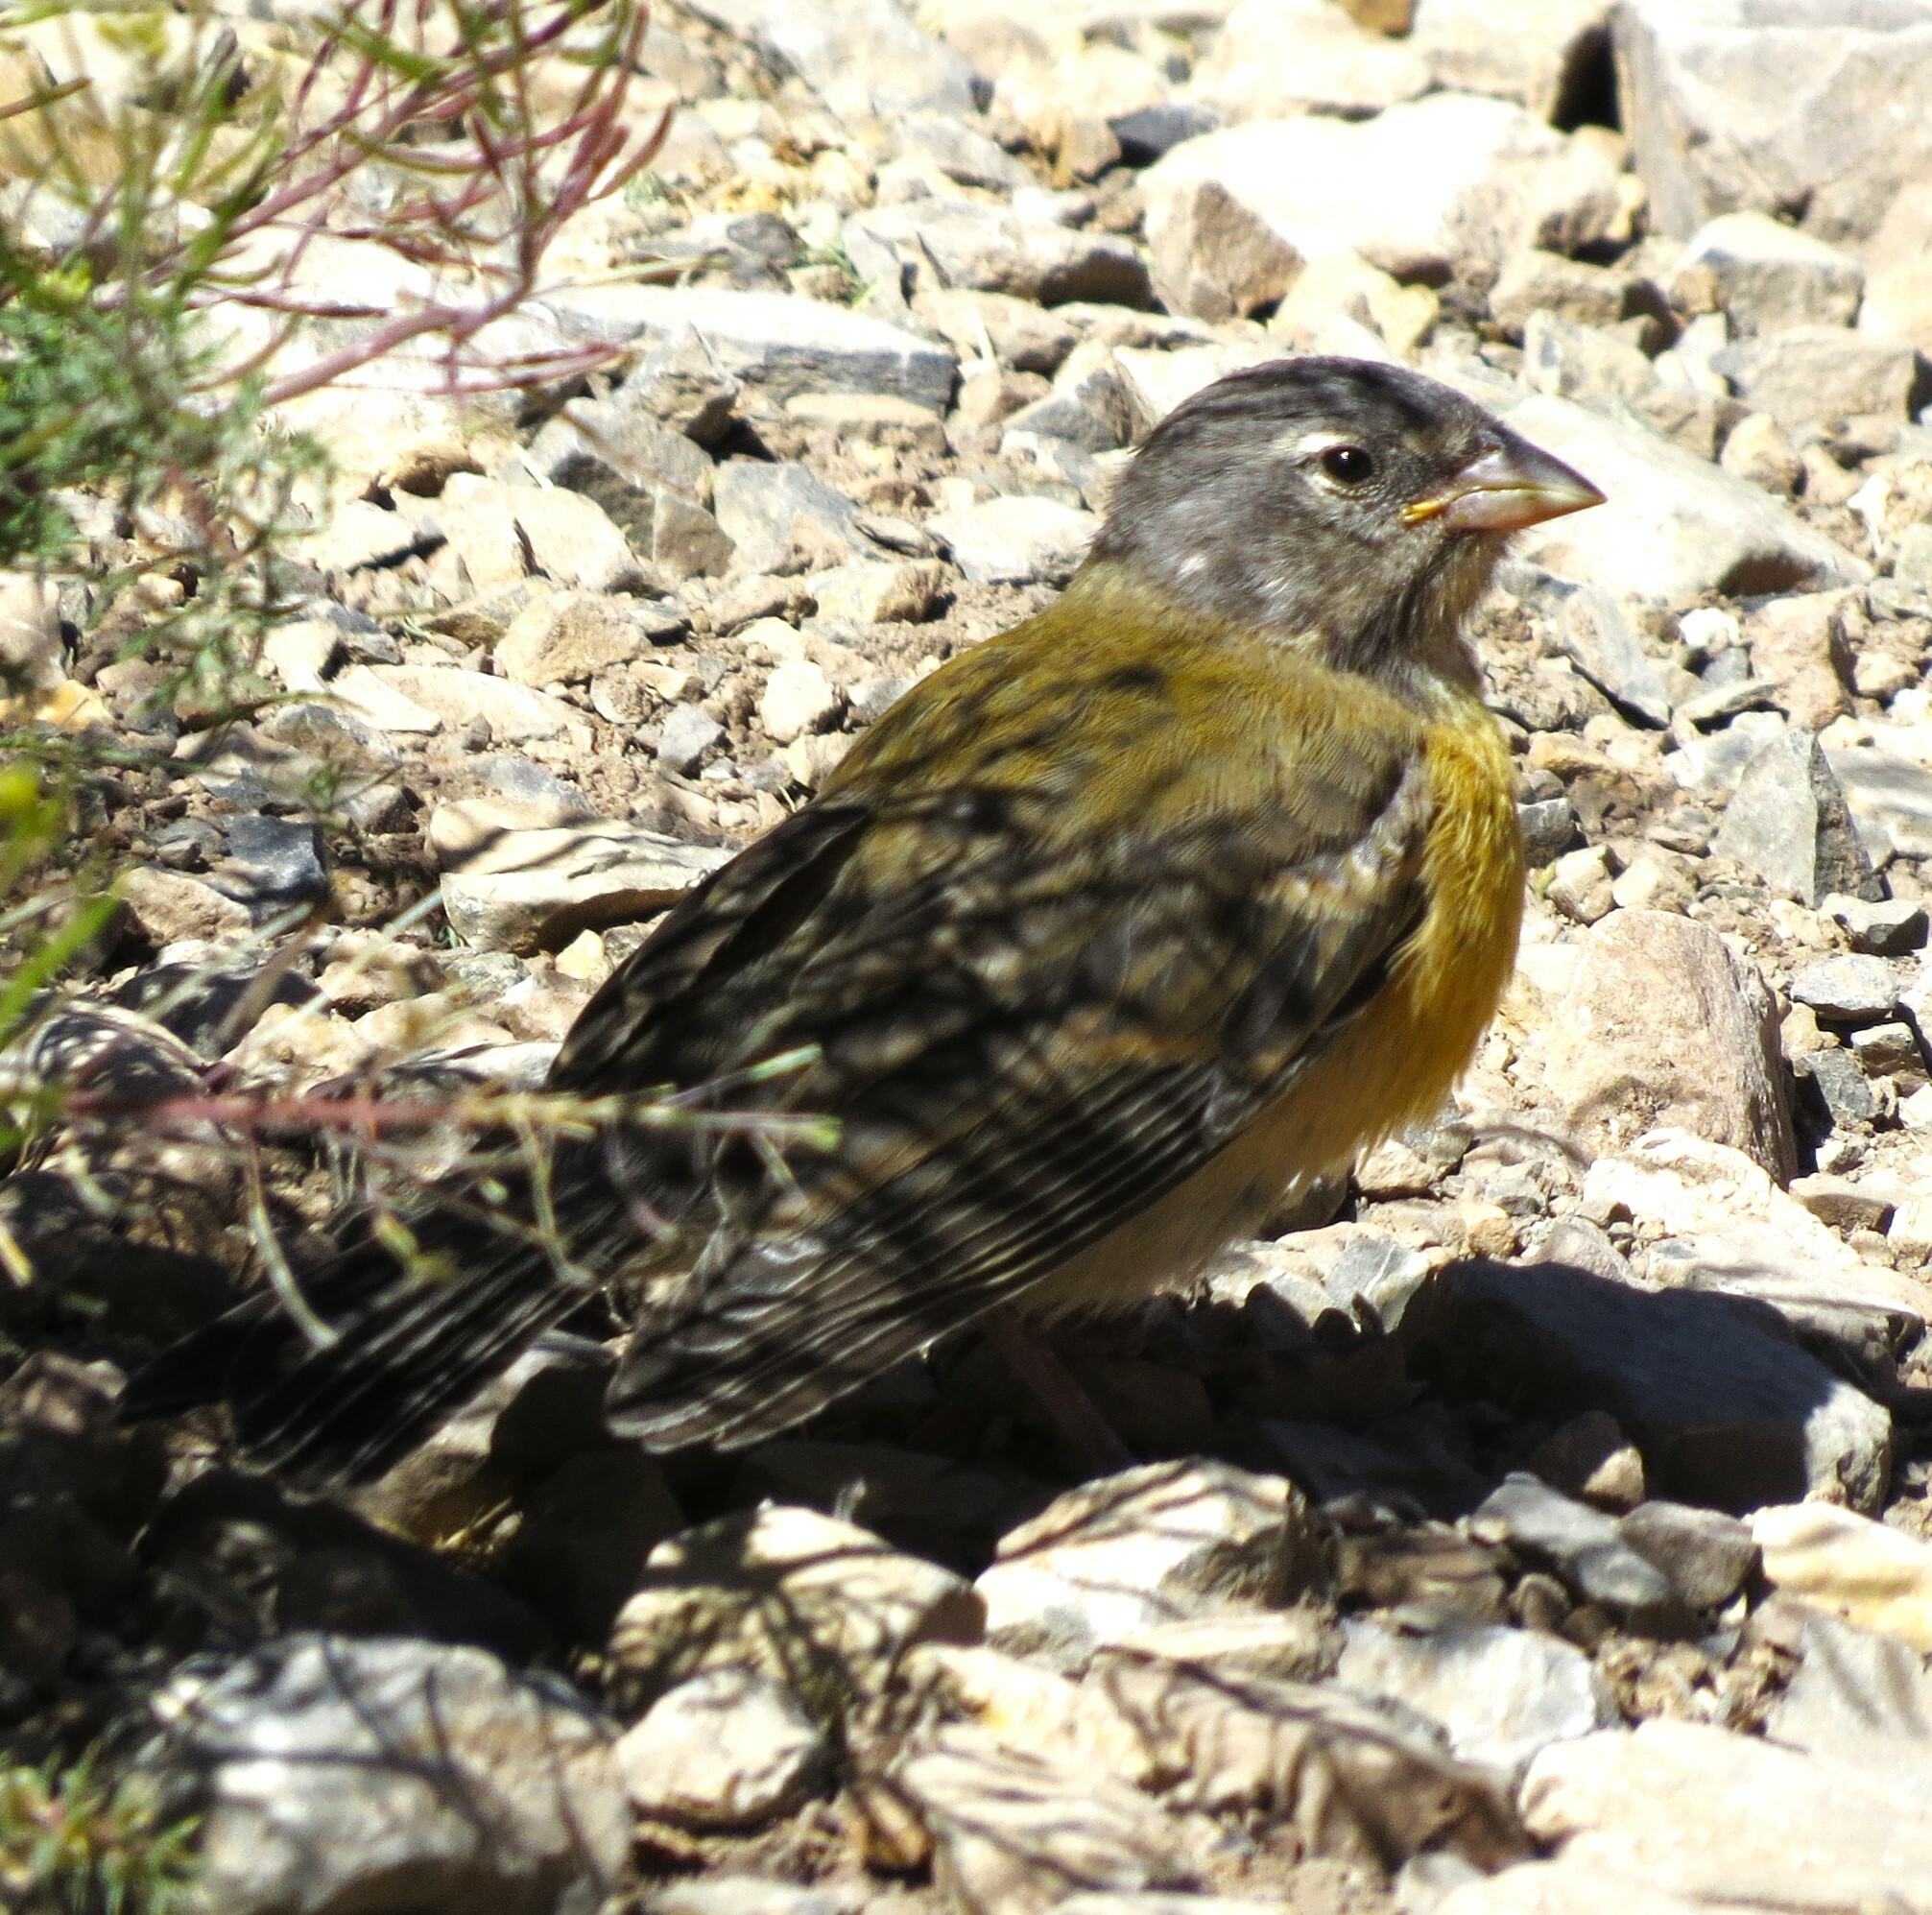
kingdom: Animalia
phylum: Chordata
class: Aves
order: Passeriformes
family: Thraupidae
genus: Phrygilus
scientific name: Phrygilus gayi
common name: Grey-hooded sierra finch
